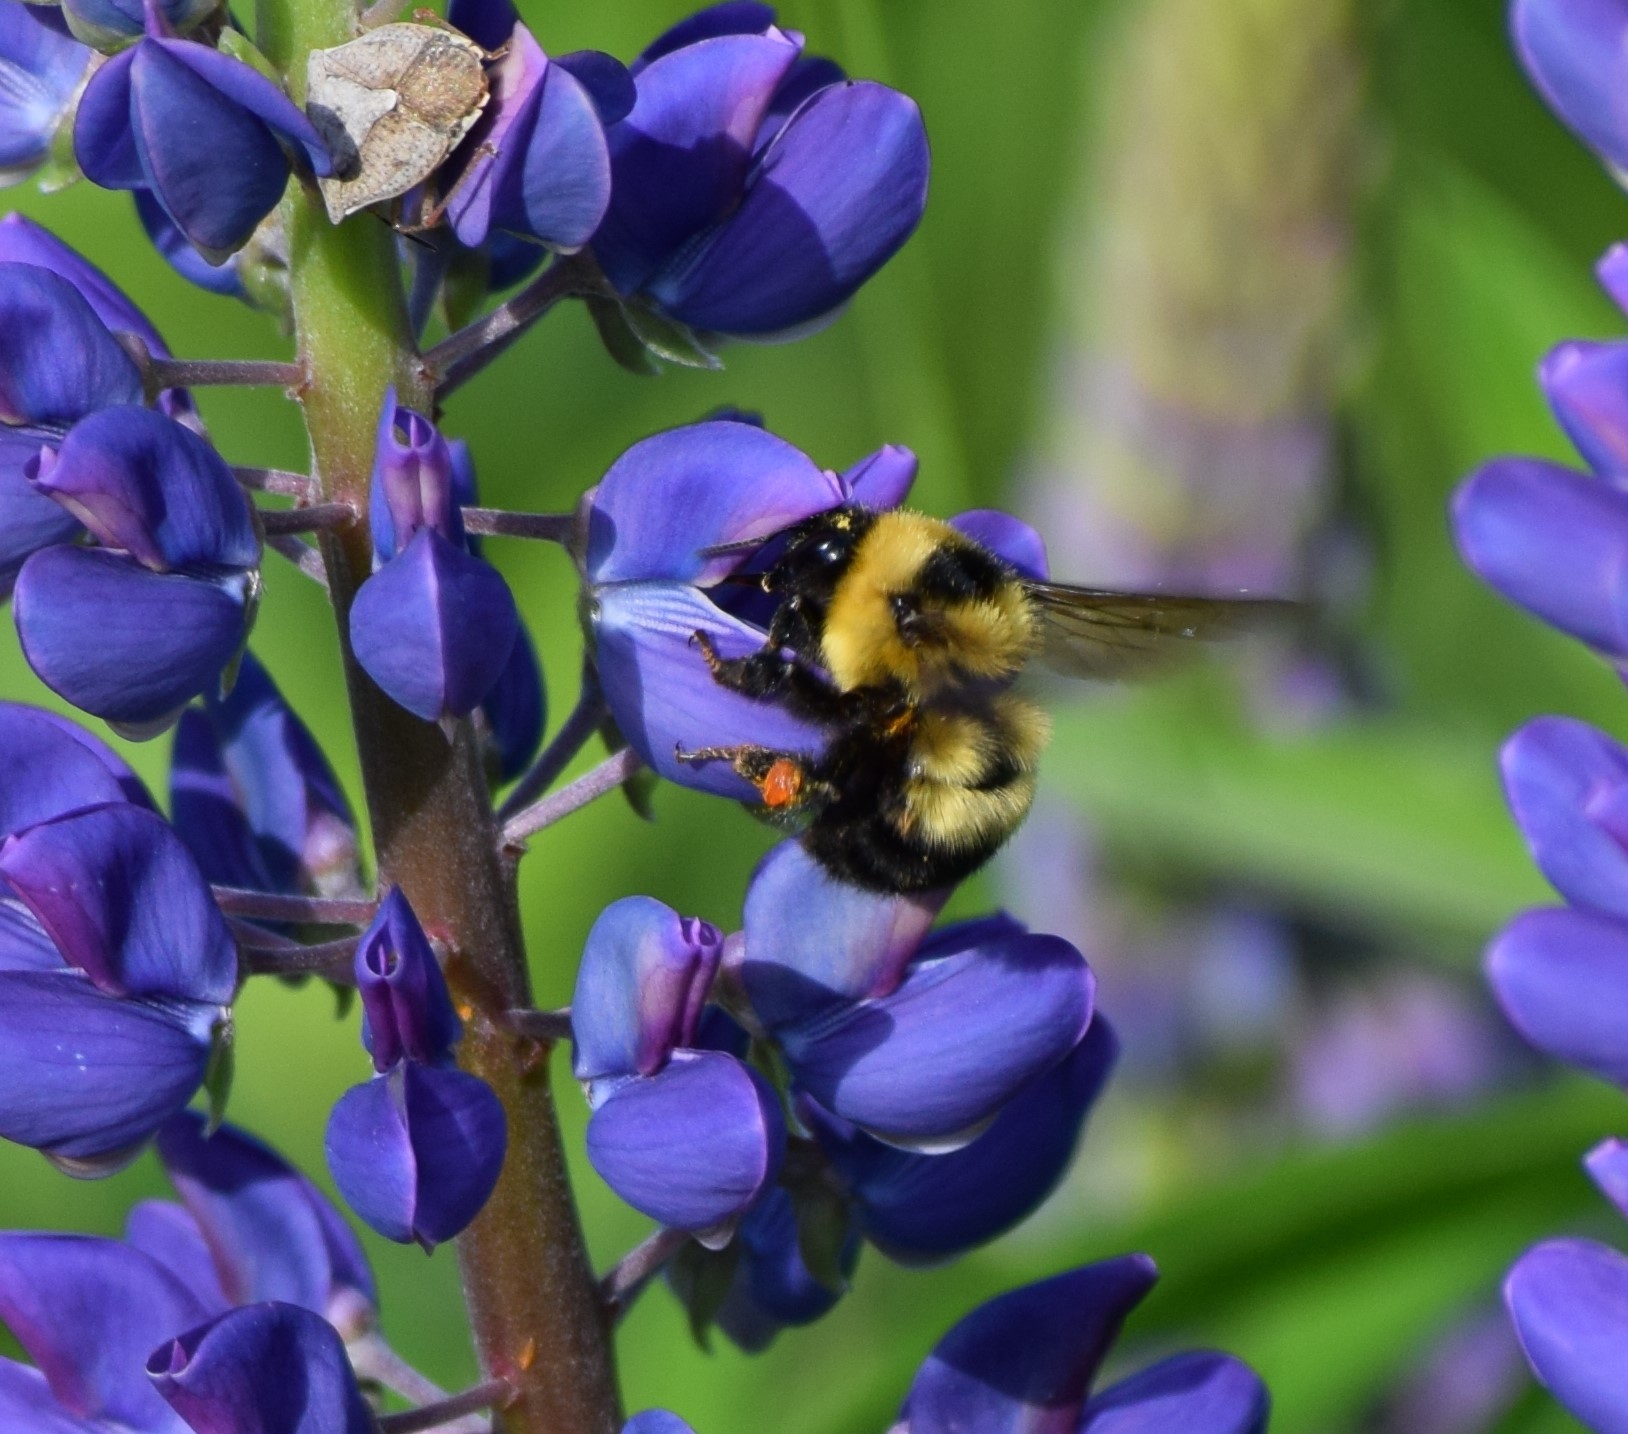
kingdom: Animalia
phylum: Arthropoda
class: Insecta
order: Hymenoptera
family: Apidae
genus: Bombus
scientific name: Bombus rufocinctus
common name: Red-belted bumble bee
